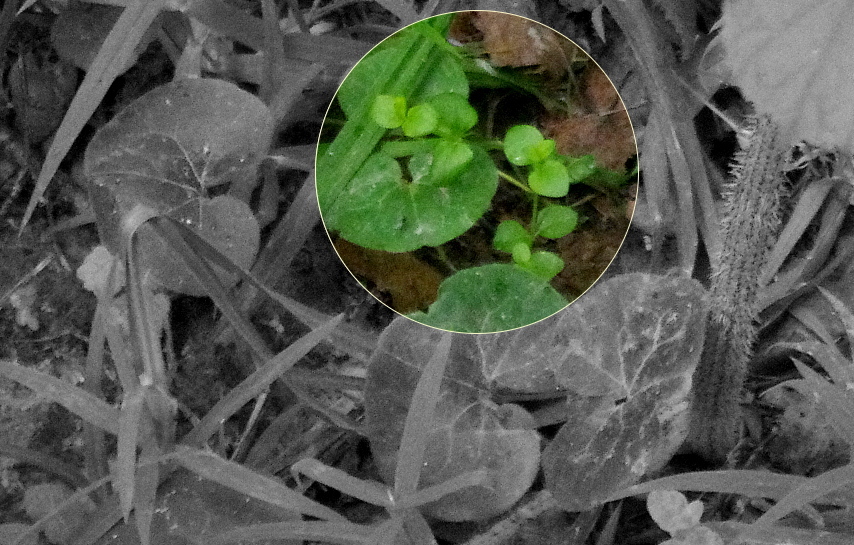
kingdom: Plantae
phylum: Tracheophyta
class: Magnoliopsida
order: Caryophyllales
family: Caryophyllaceae
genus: Stellaria
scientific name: Stellaria media
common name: Common chickweed
